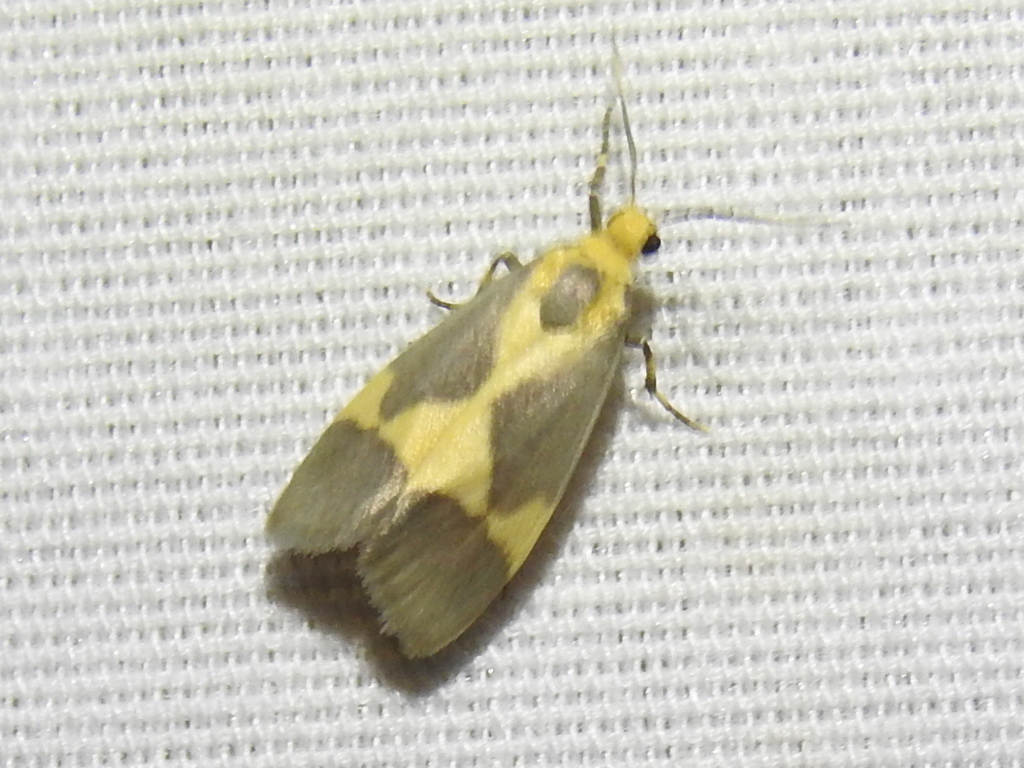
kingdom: Animalia
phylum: Arthropoda
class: Insecta
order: Lepidoptera
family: Erebidae
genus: Cisthene
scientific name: Cisthene unifascia
